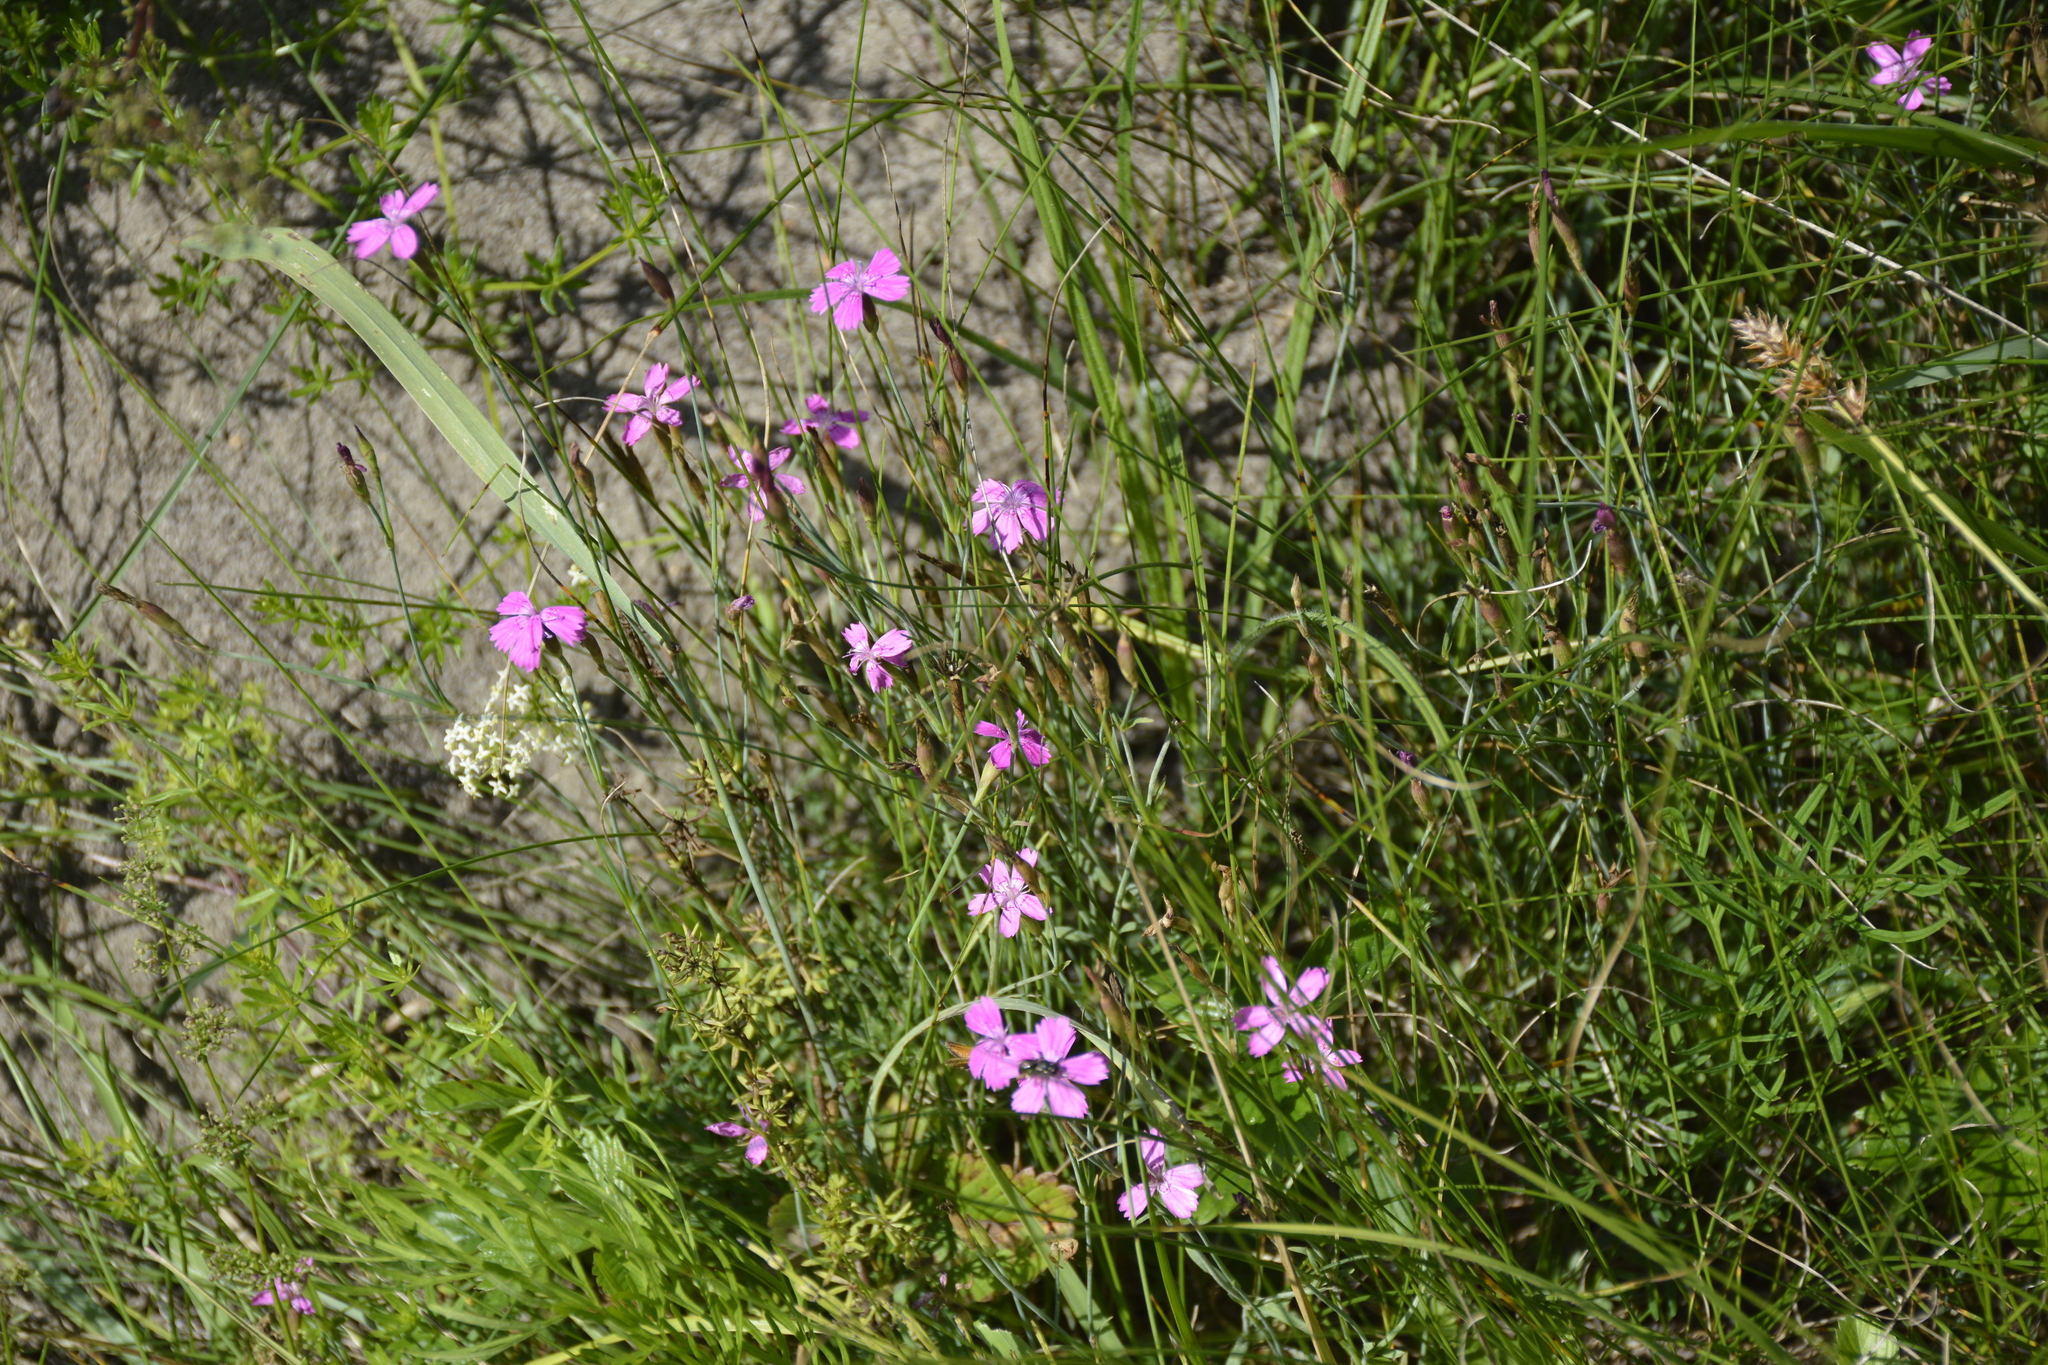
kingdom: Plantae
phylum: Tracheophyta
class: Magnoliopsida
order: Caryophyllales
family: Caryophyllaceae
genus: Dianthus
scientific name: Dianthus deltoides
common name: Maiden pink
